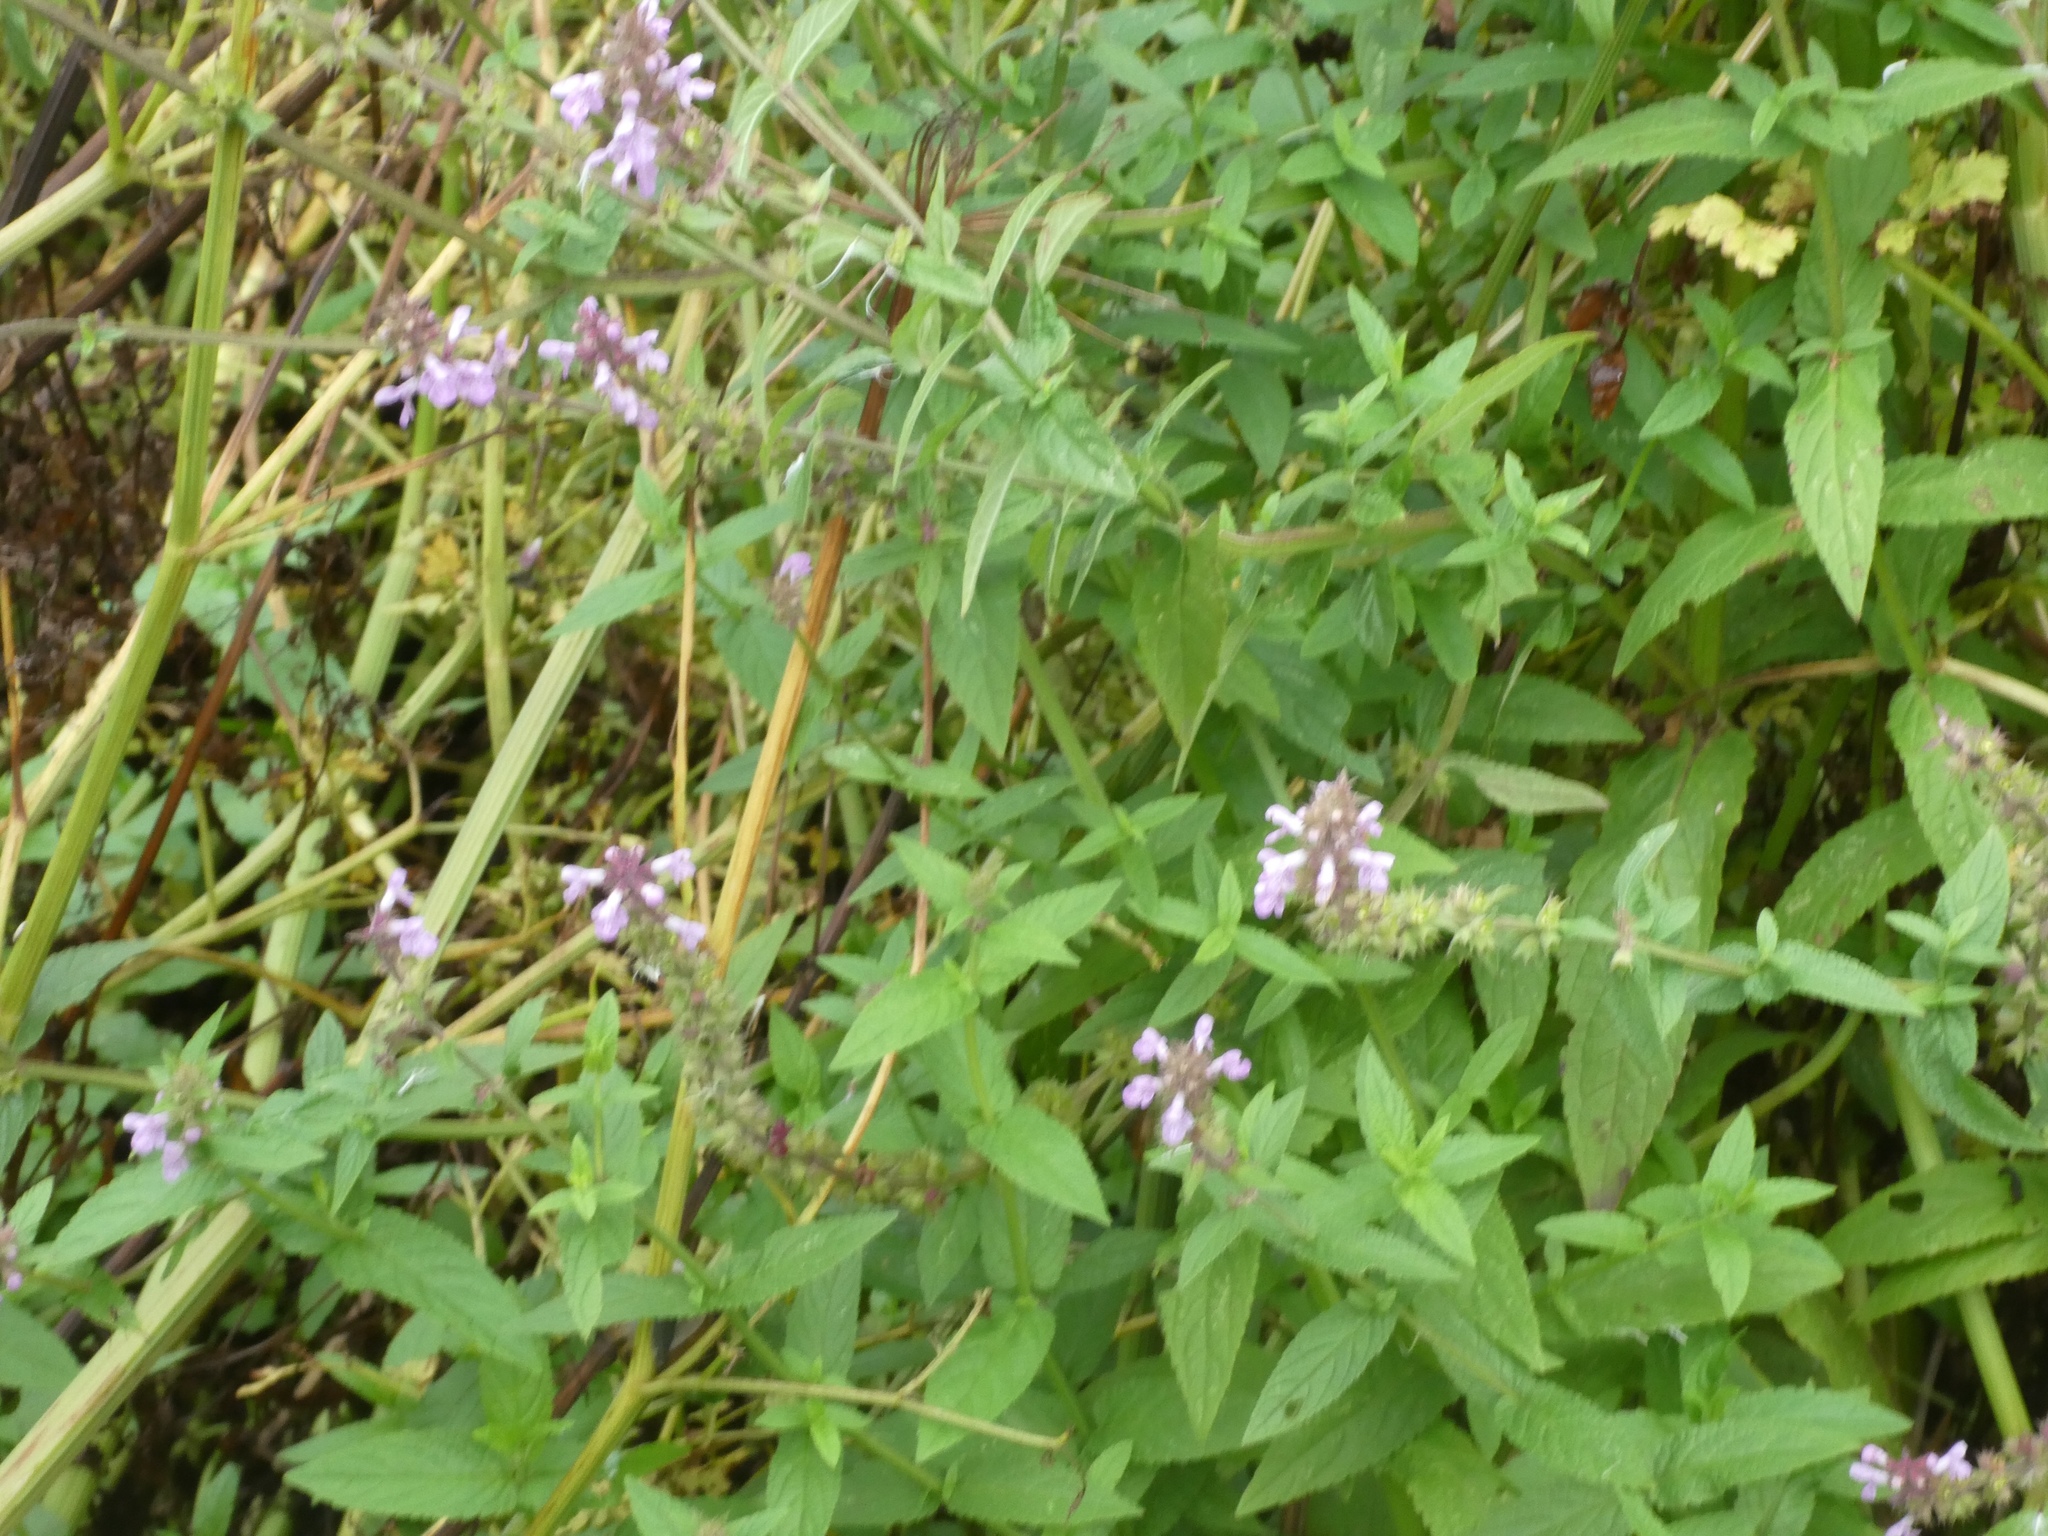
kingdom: Plantae
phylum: Tracheophyta
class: Magnoliopsida
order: Lamiales
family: Lamiaceae
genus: Stachys
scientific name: Stachys palustris
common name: Marsh woundwort
